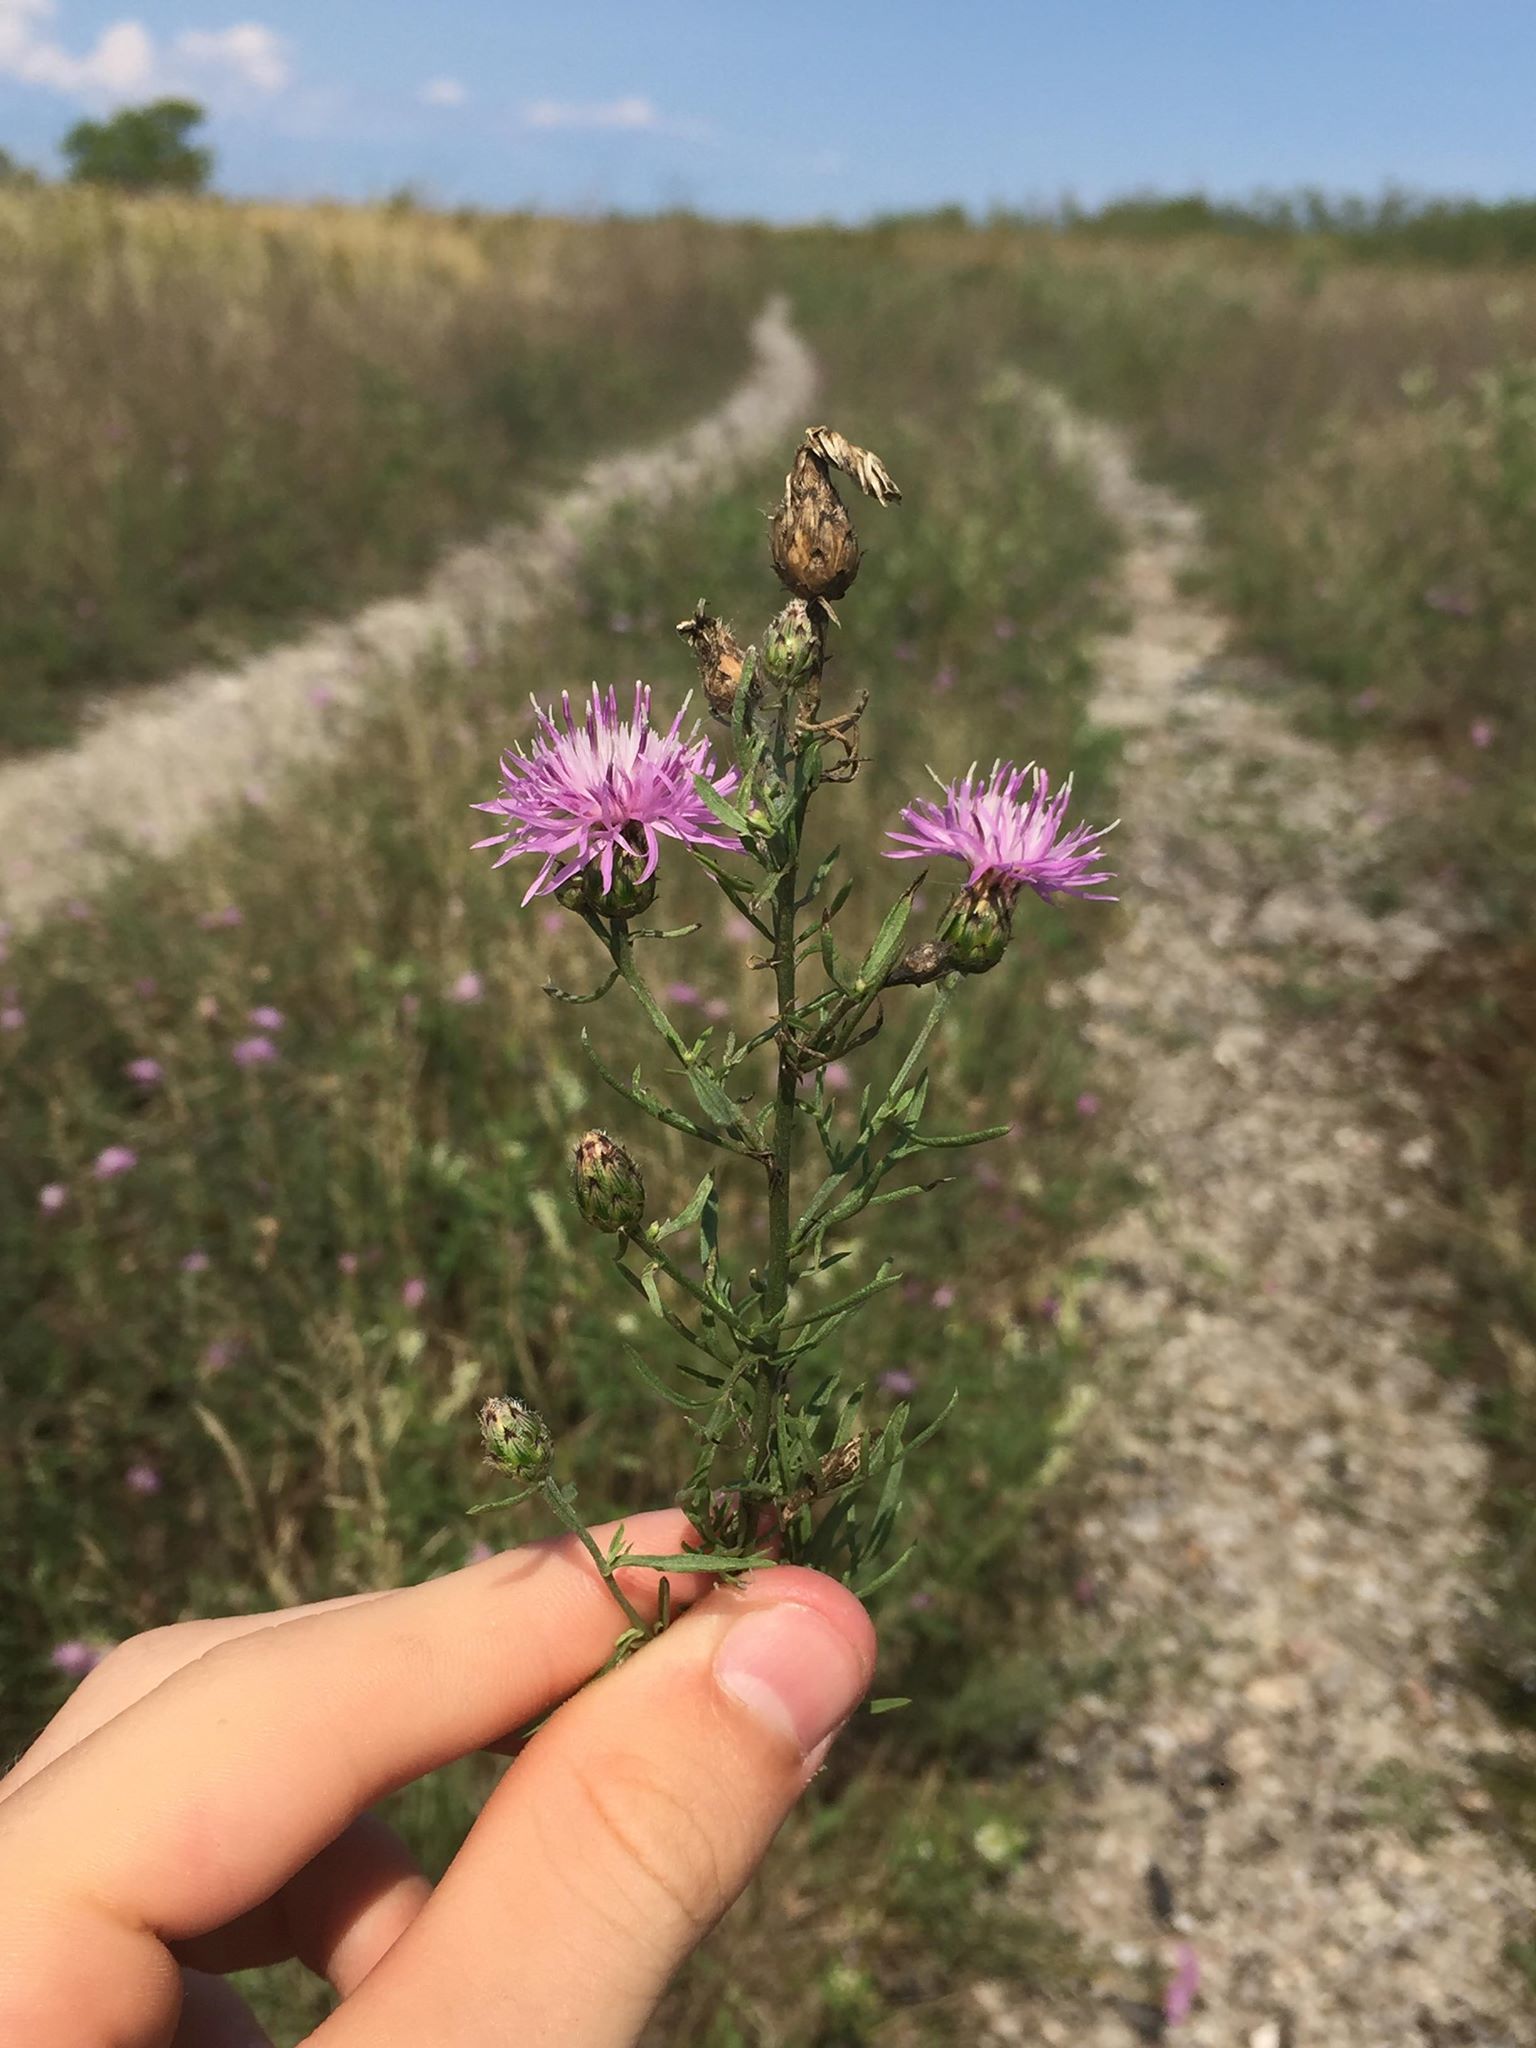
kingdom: Plantae
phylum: Tracheophyta
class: Magnoliopsida
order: Asterales
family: Asteraceae
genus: Centaurea
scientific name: Centaurea stoebe
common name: Spotted knapweed
